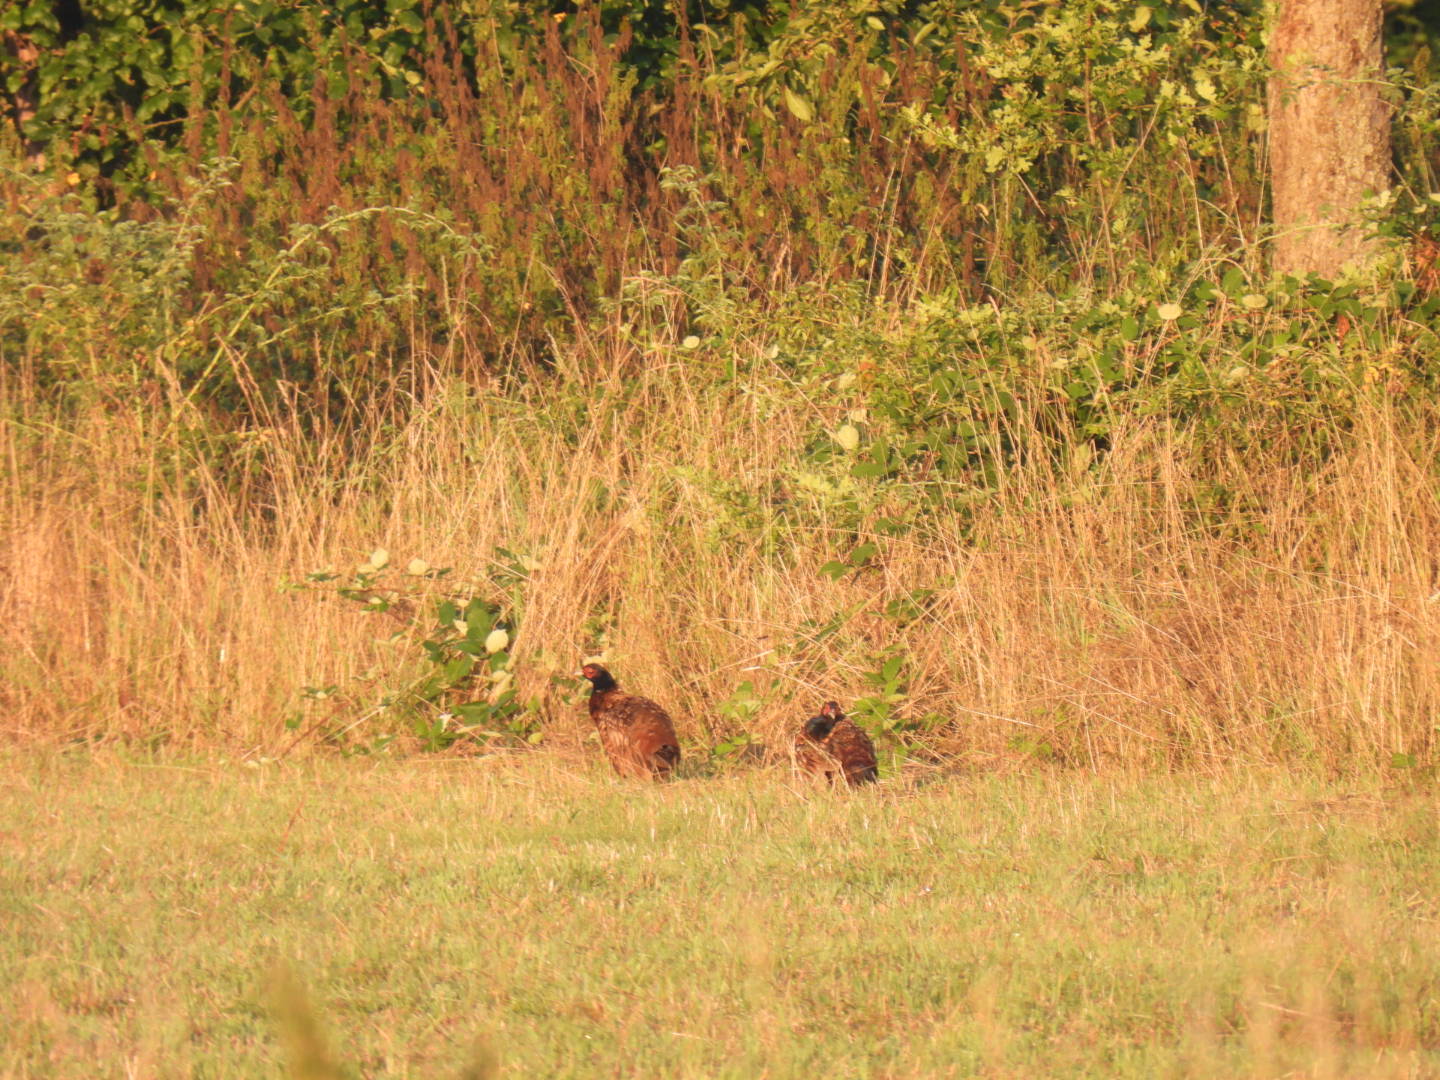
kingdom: Animalia
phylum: Chordata
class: Aves
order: Galliformes
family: Phasianidae
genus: Phasianus
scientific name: Phasianus colchicus
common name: Common pheasant
